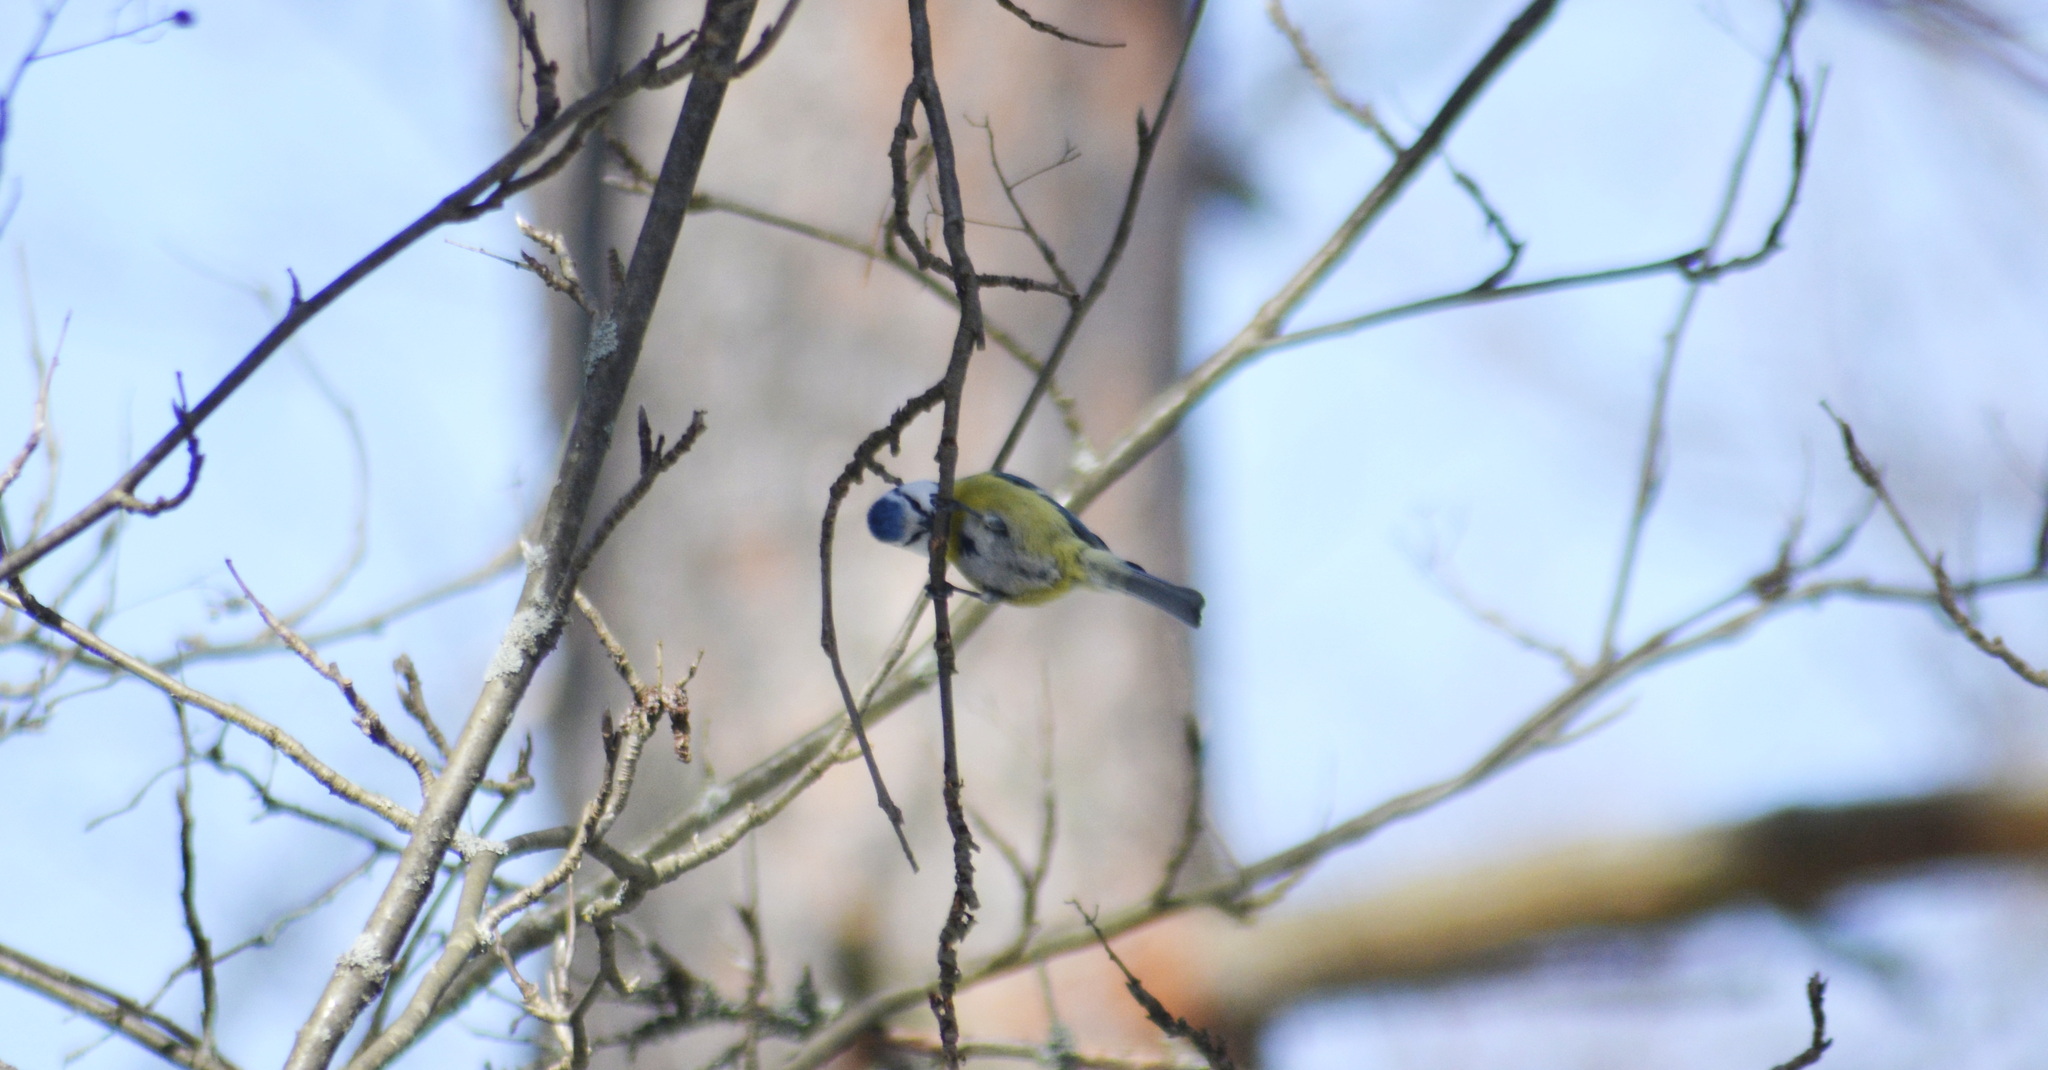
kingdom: Animalia
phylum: Chordata
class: Aves
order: Passeriformes
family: Paridae
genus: Cyanistes
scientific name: Cyanistes caeruleus
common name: Eurasian blue tit
